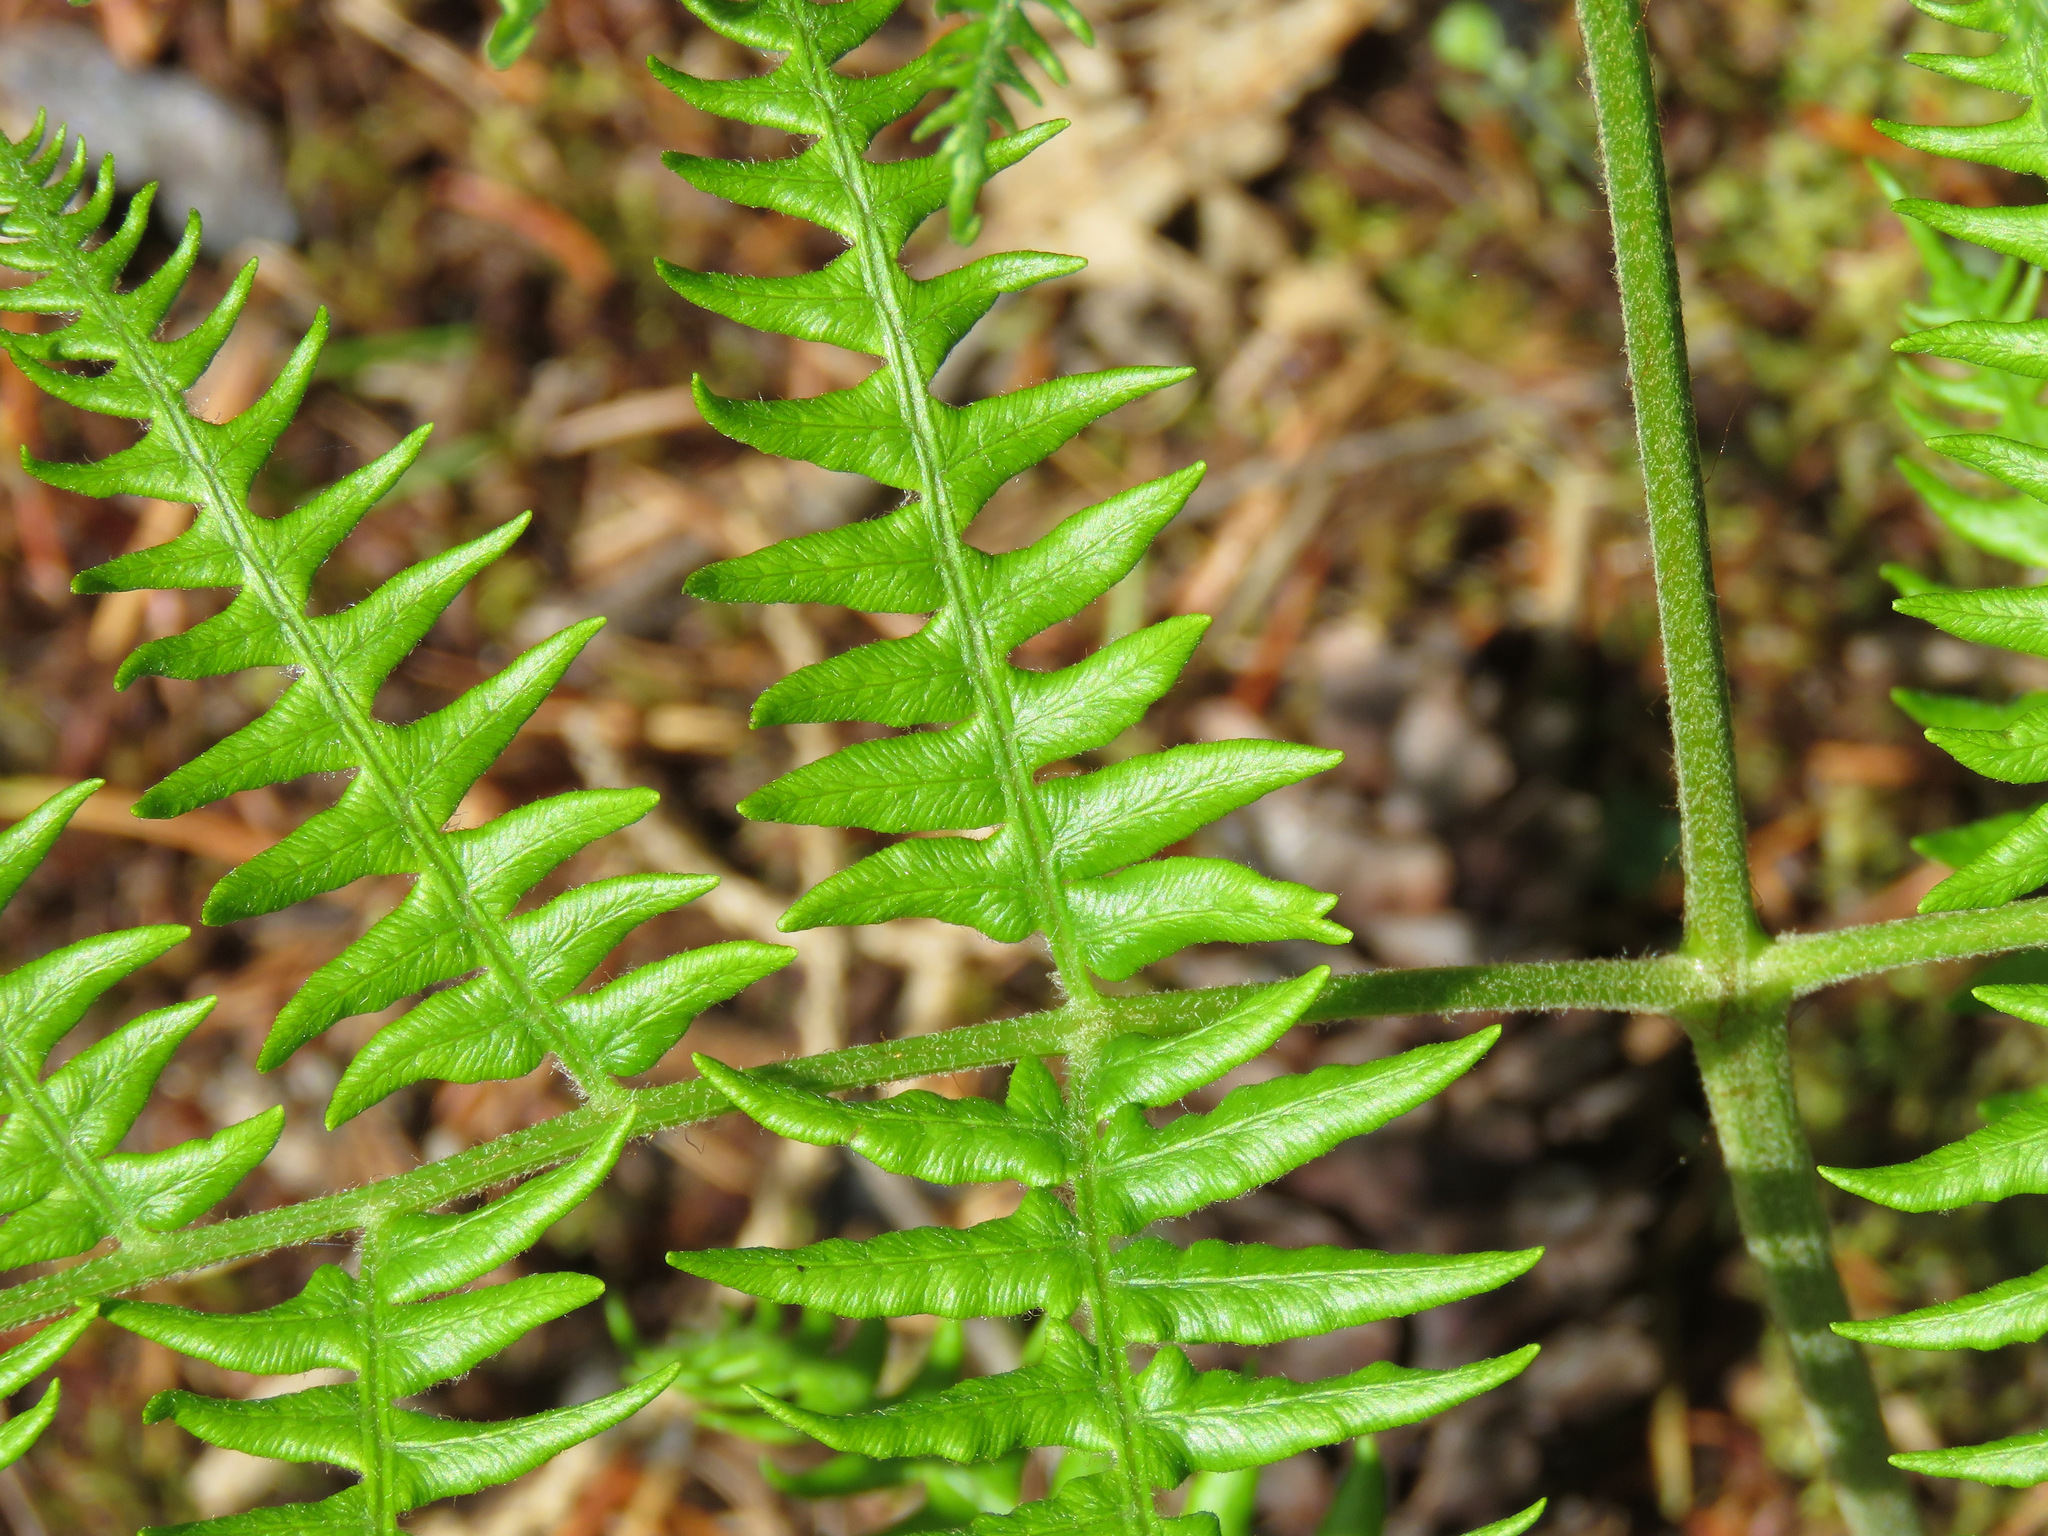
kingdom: Plantae
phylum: Tracheophyta
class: Polypodiopsida
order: Polypodiales
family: Dennstaedtiaceae
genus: Pteridium
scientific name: Pteridium aquilinum
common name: Bracken
